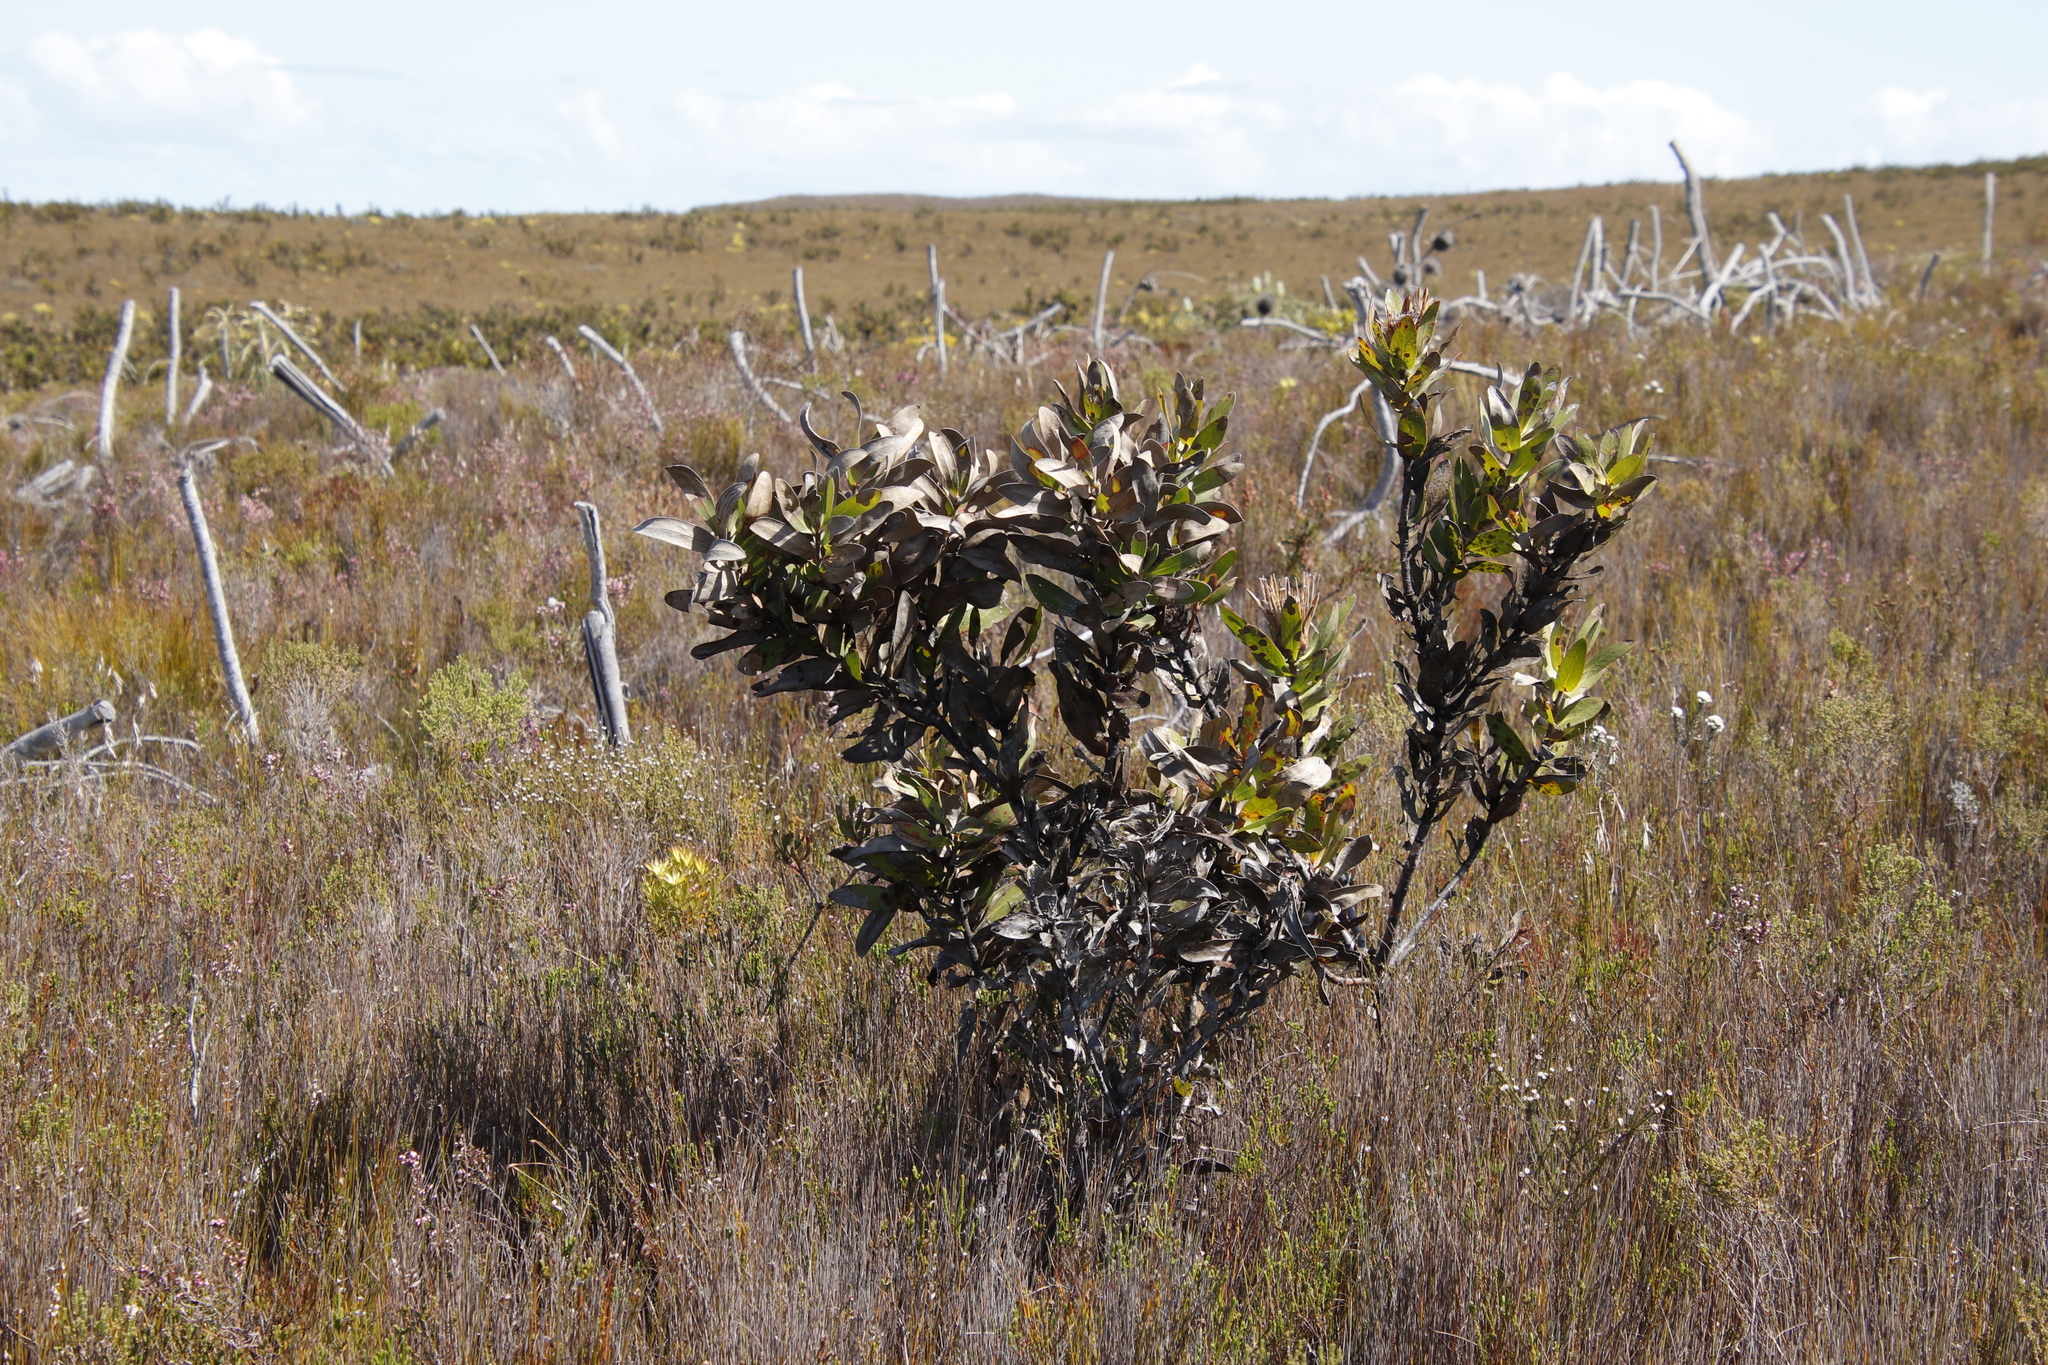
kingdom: Plantae
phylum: Tracheophyta
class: Magnoliopsida
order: Proteales
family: Proteaceae
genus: Protea
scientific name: Protea compacta
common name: Bot river protea
